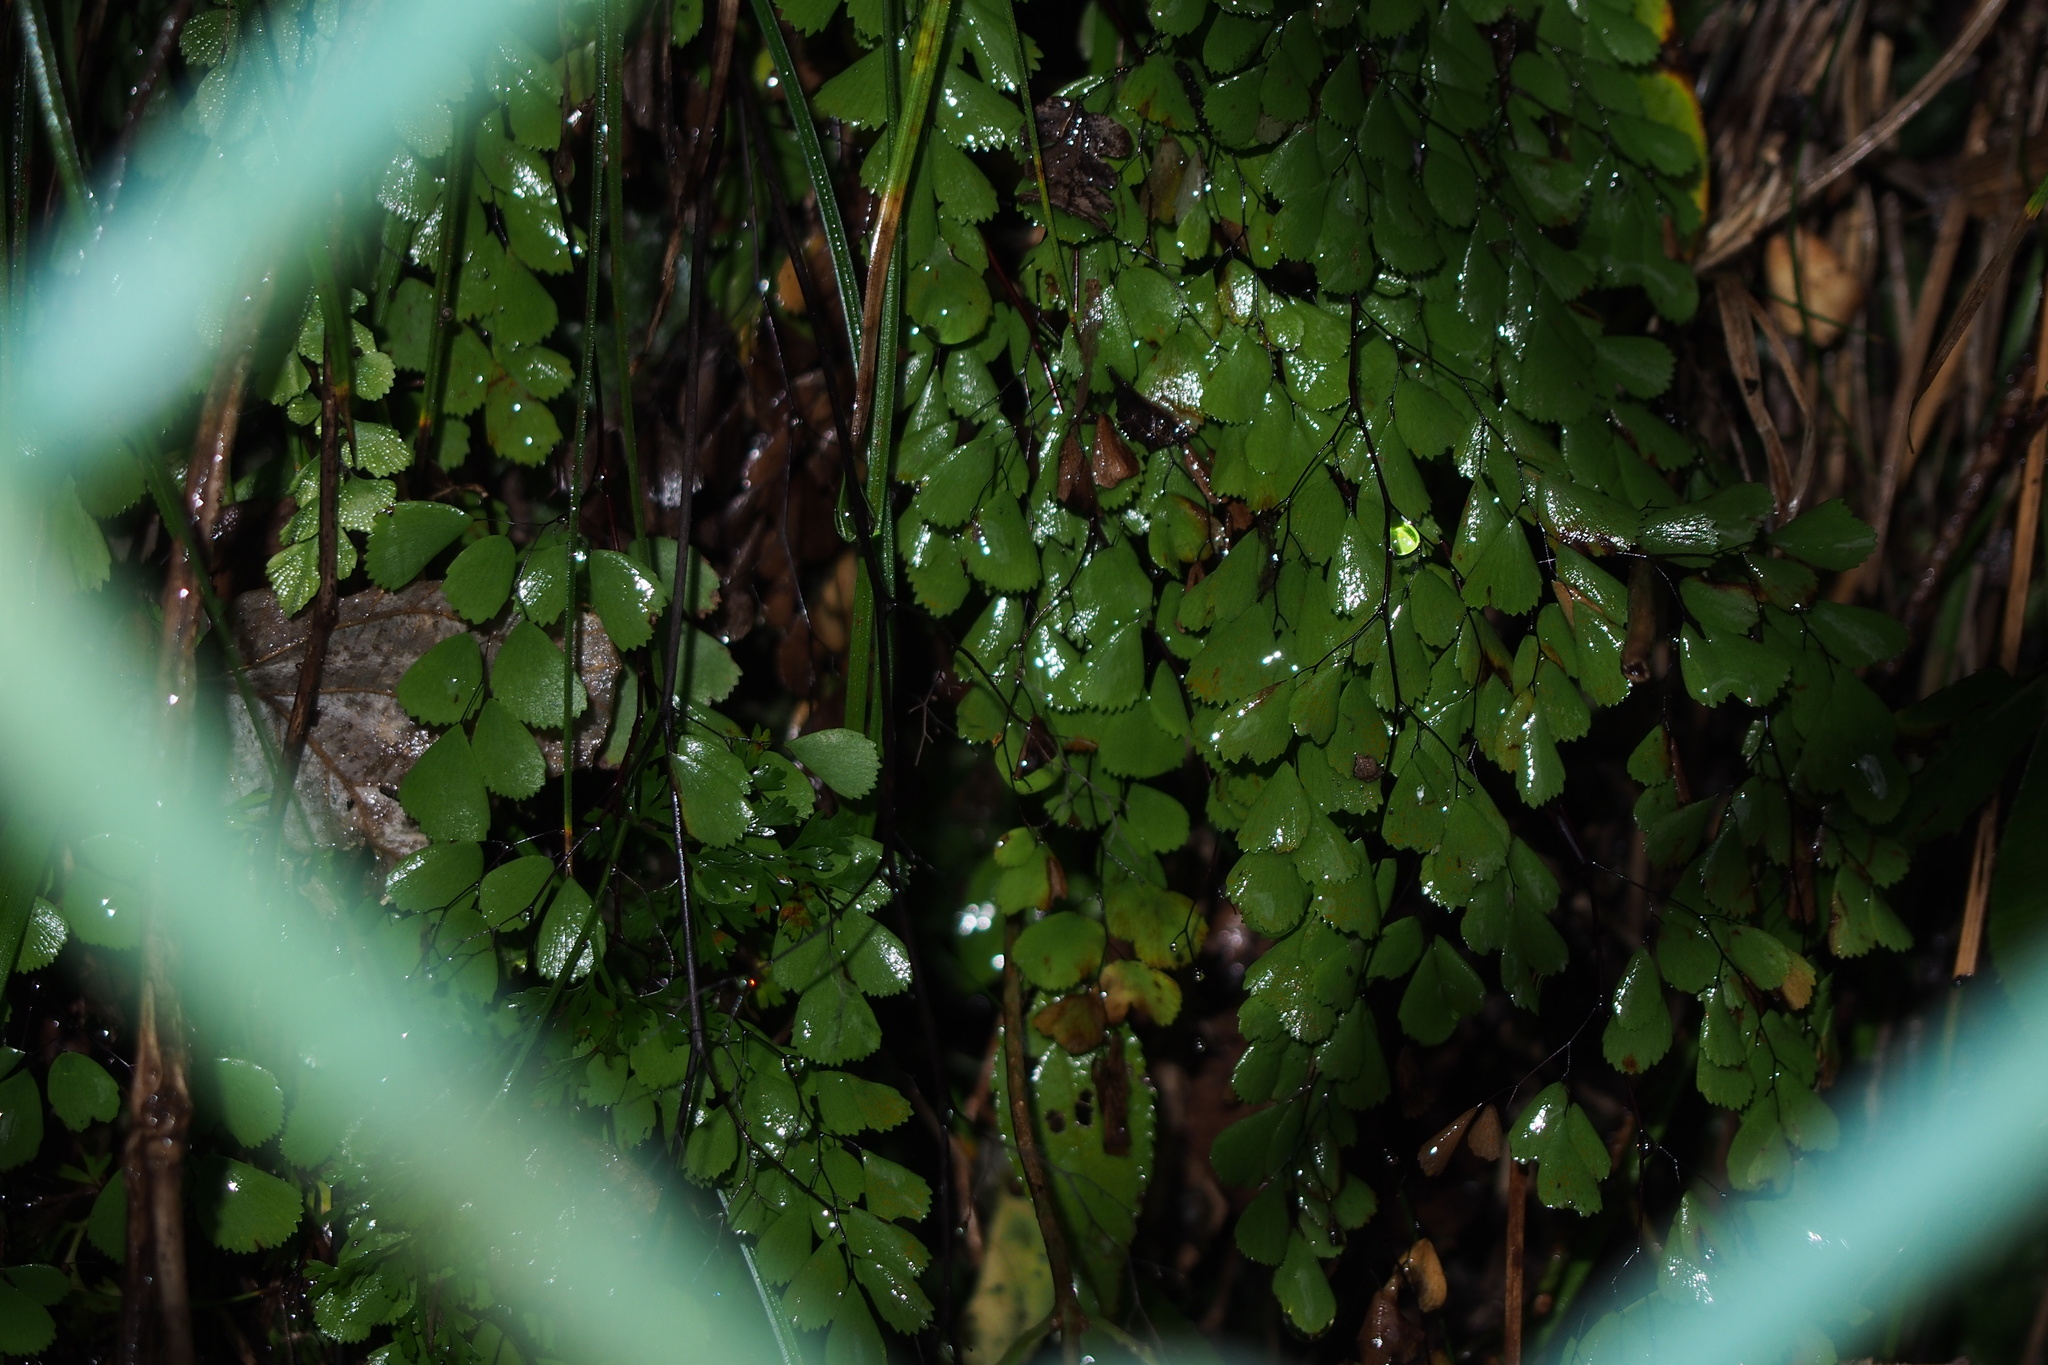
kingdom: Plantae
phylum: Tracheophyta
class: Polypodiopsida
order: Polypodiales
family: Pteridaceae
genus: Adiantum
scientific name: Adiantum monochlamys
